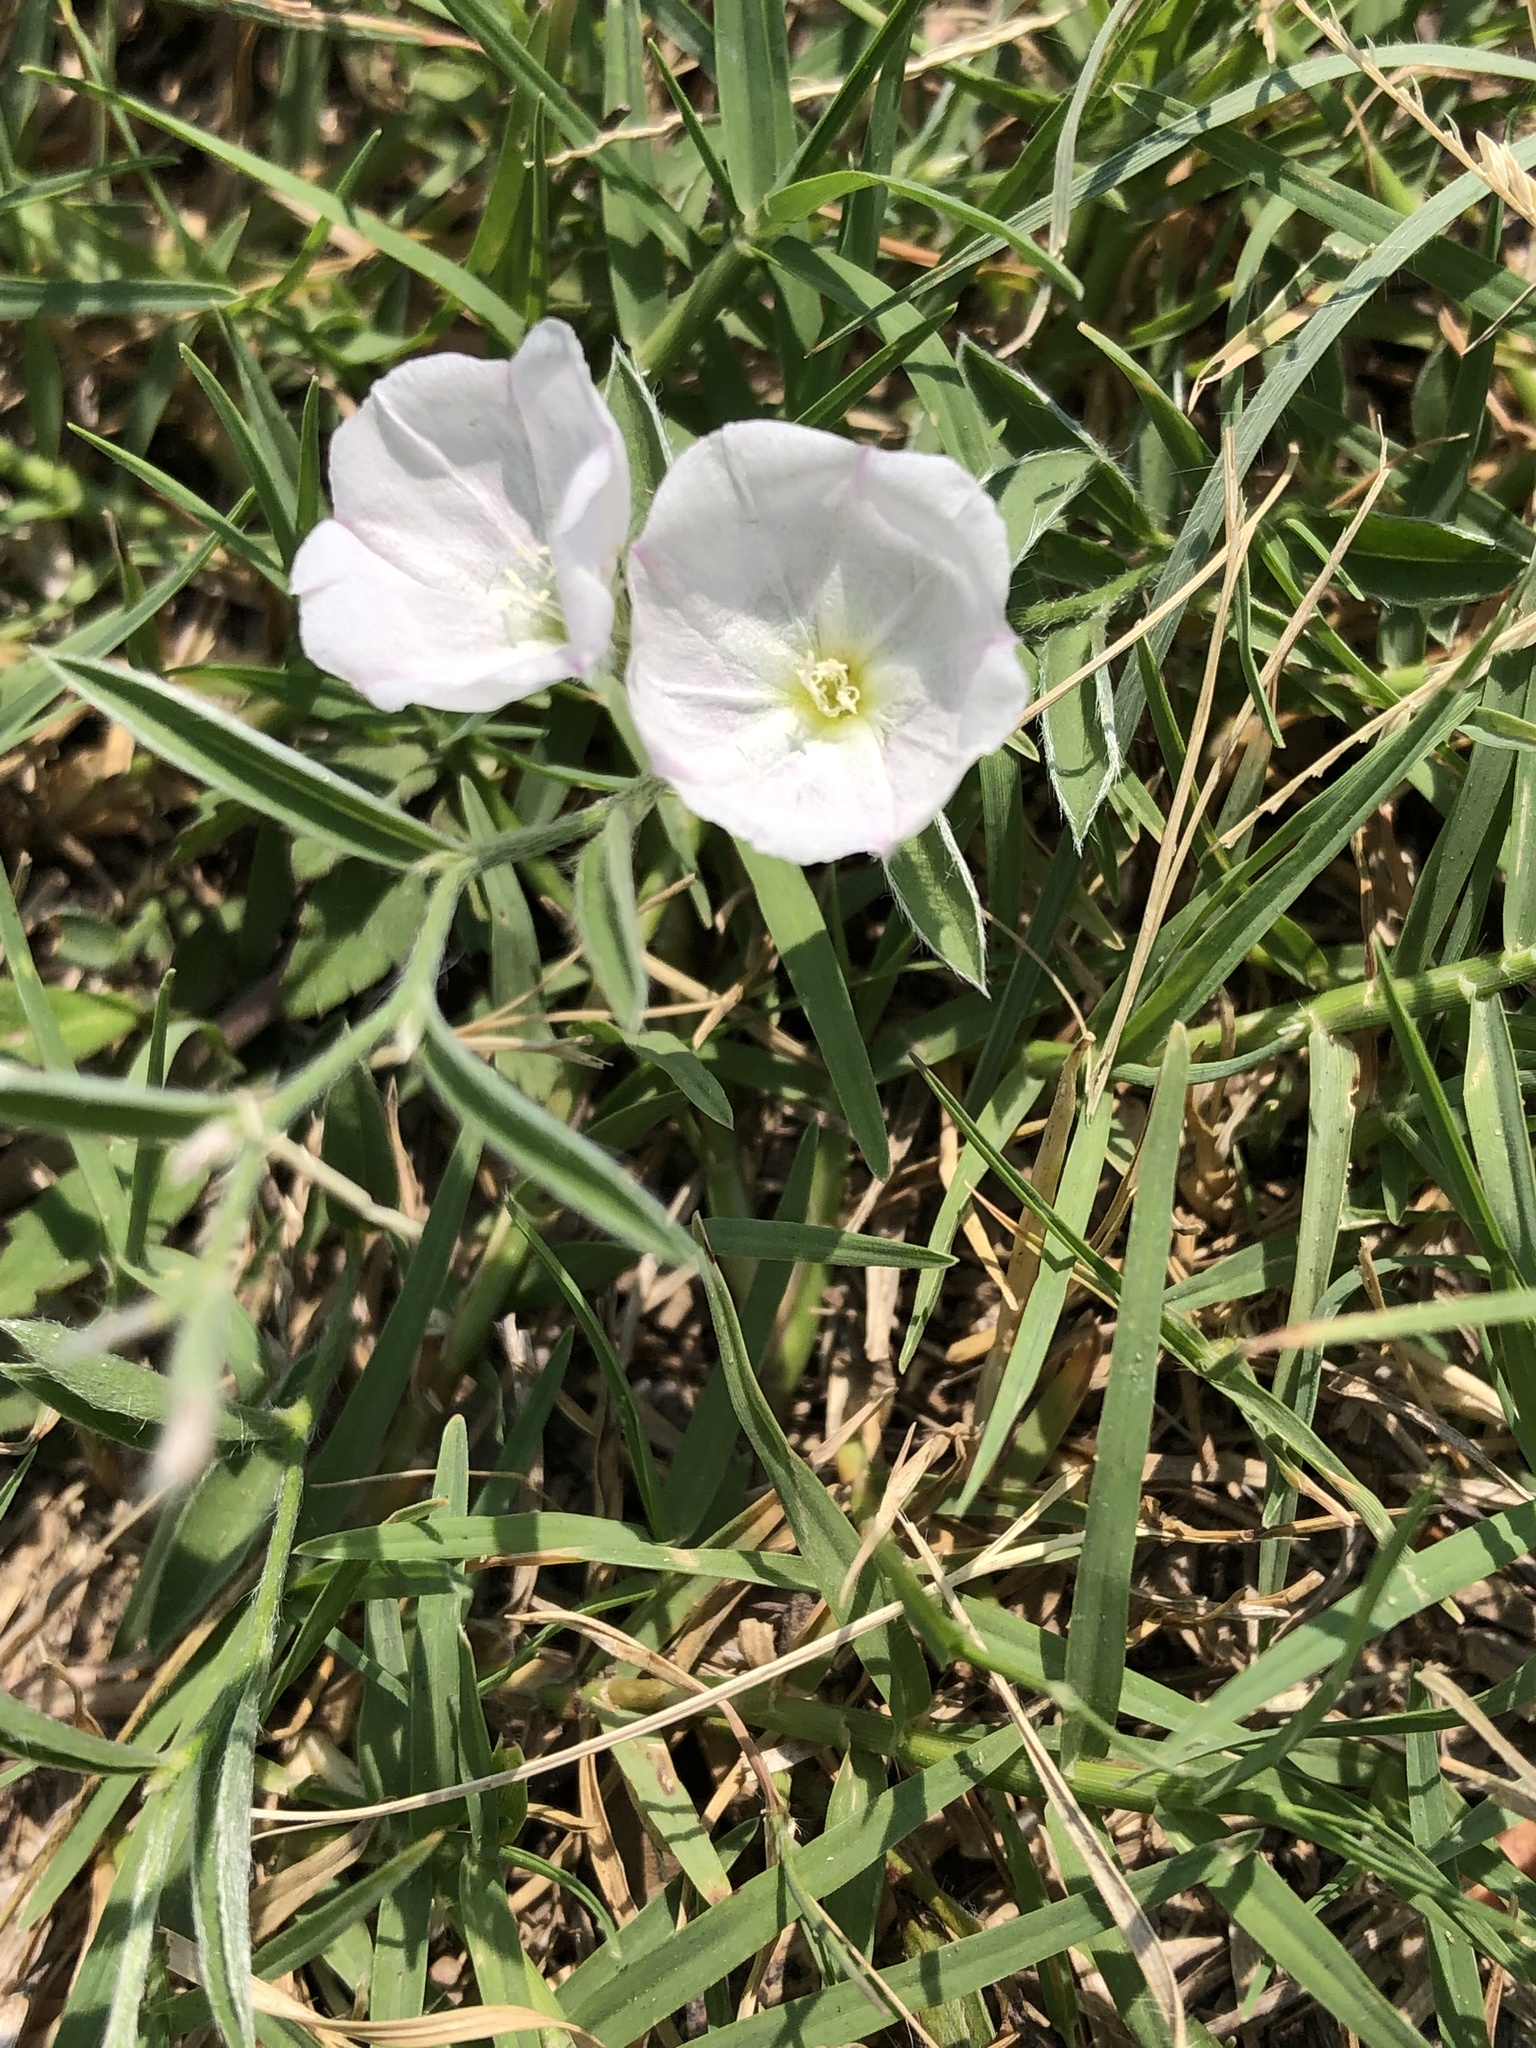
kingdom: Plantae
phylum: Tracheophyta
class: Magnoliopsida
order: Solanales
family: Convolvulaceae
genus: Evolvulus
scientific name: Evolvulus sericeus
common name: Blue dots
